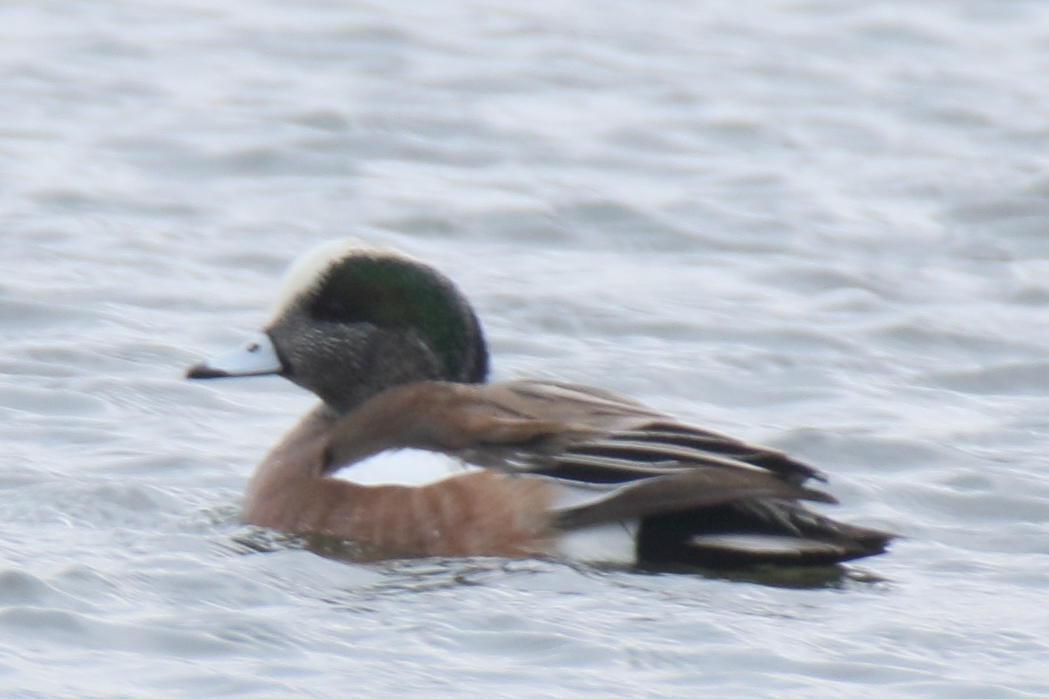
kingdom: Animalia
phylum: Chordata
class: Aves
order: Anseriformes
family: Anatidae
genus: Mareca
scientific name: Mareca americana
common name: American wigeon
